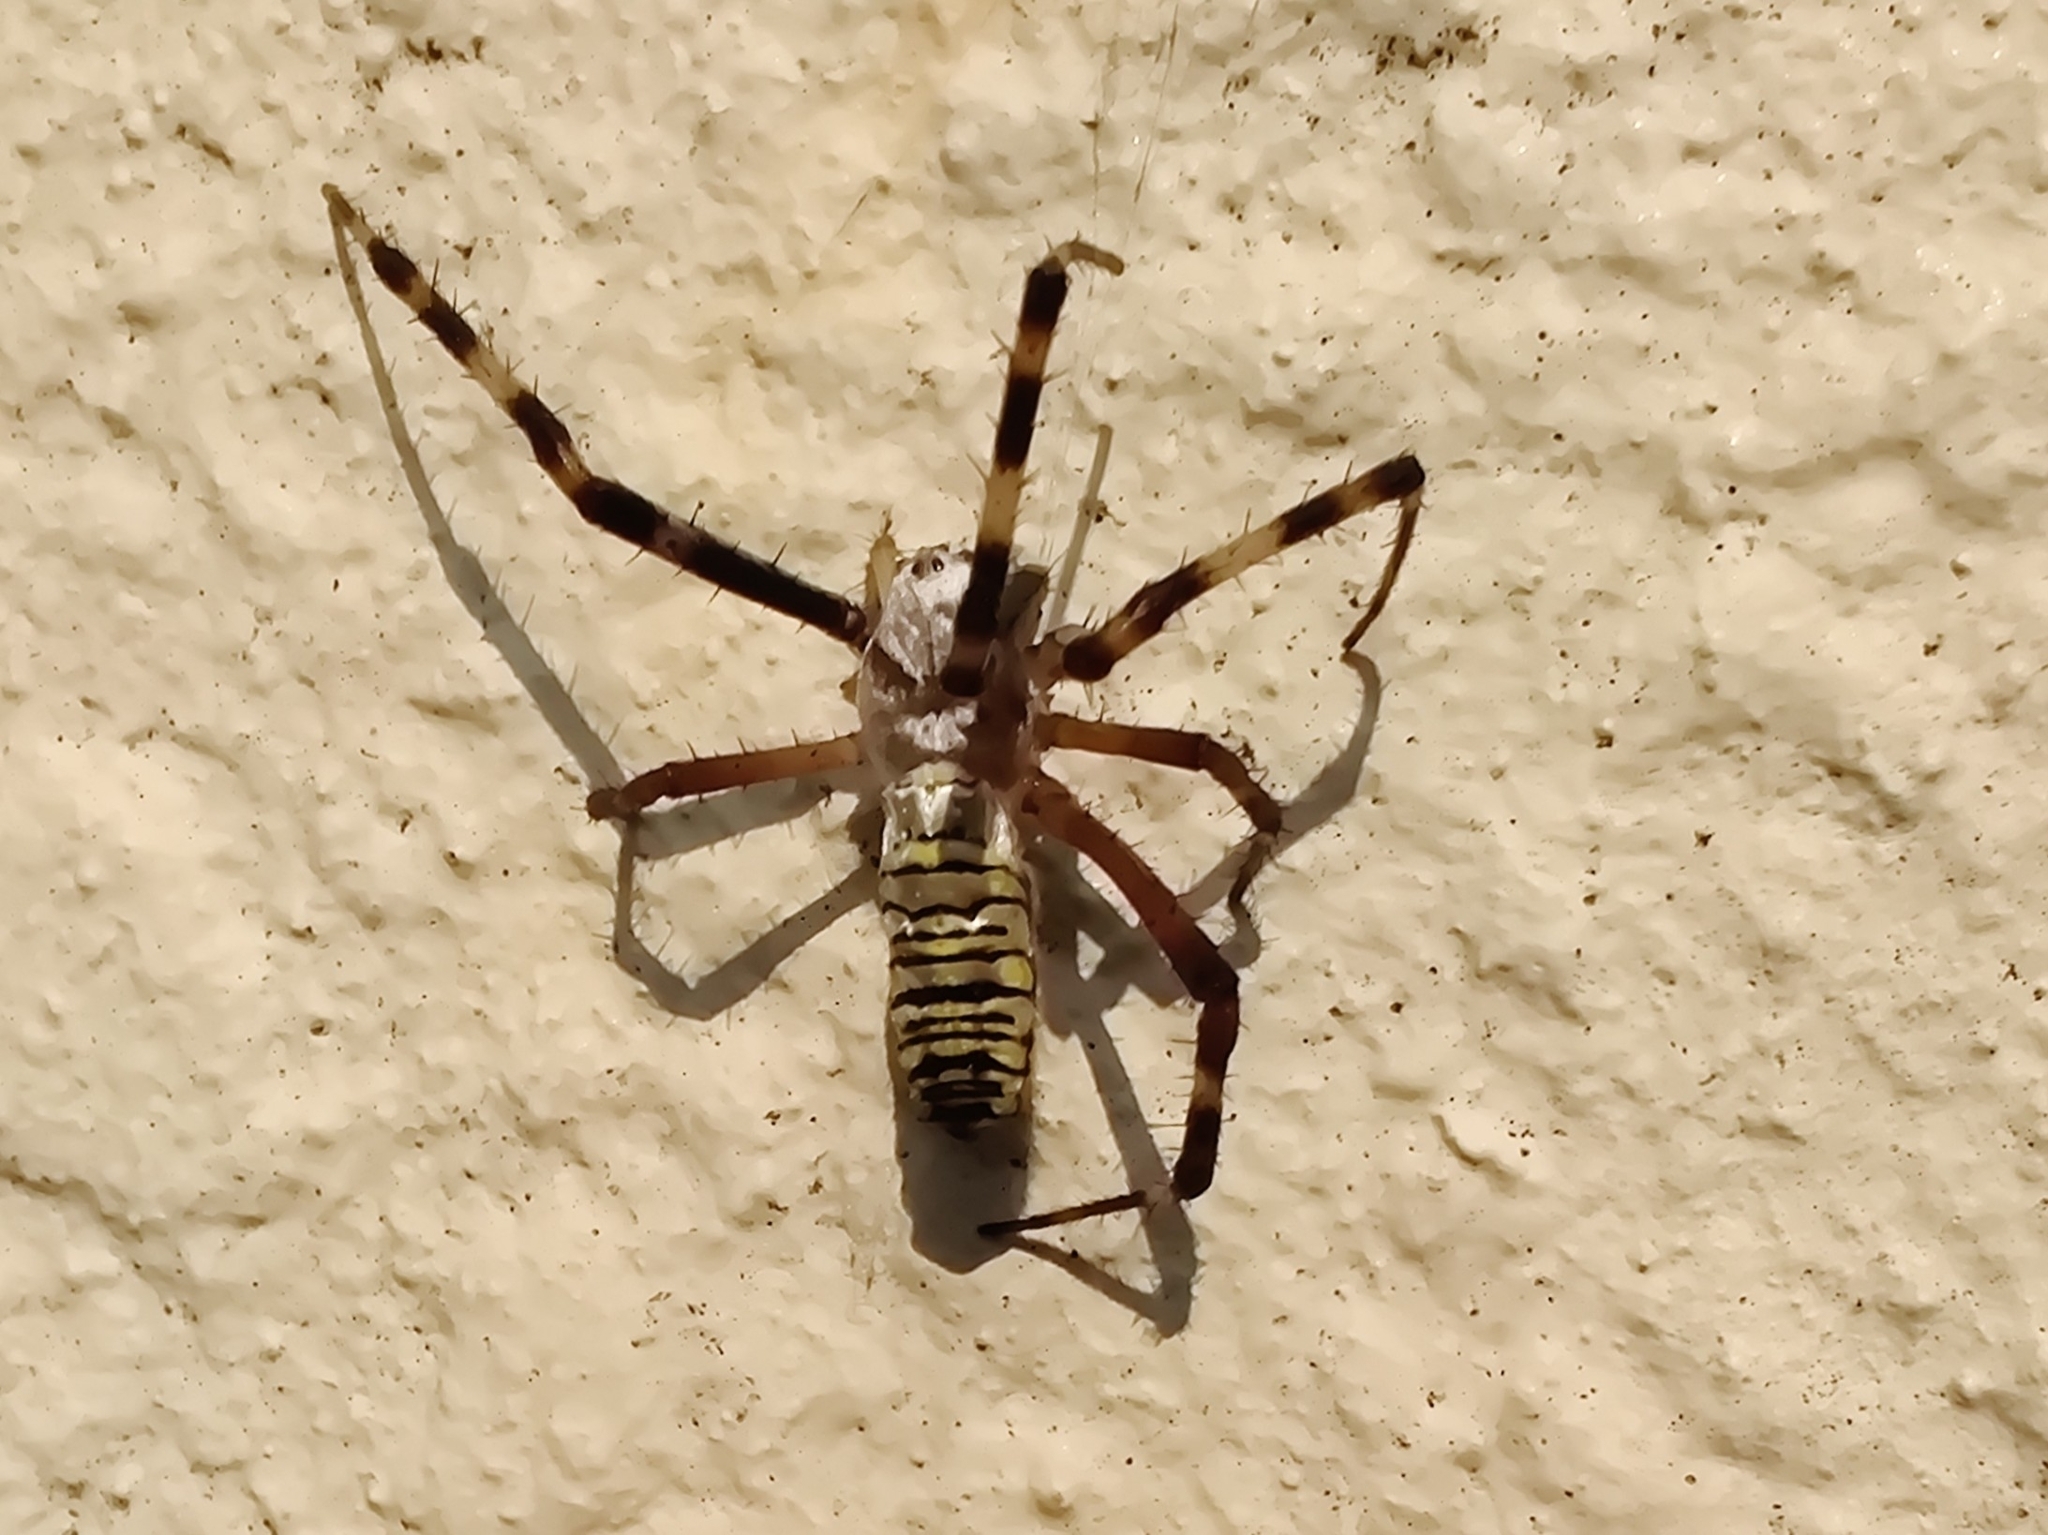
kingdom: Animalia
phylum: Arthropoda
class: Arachnida
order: Araneae
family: Araneidae
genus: Argiope
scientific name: Argiope bruennichi
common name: Wasp spider
